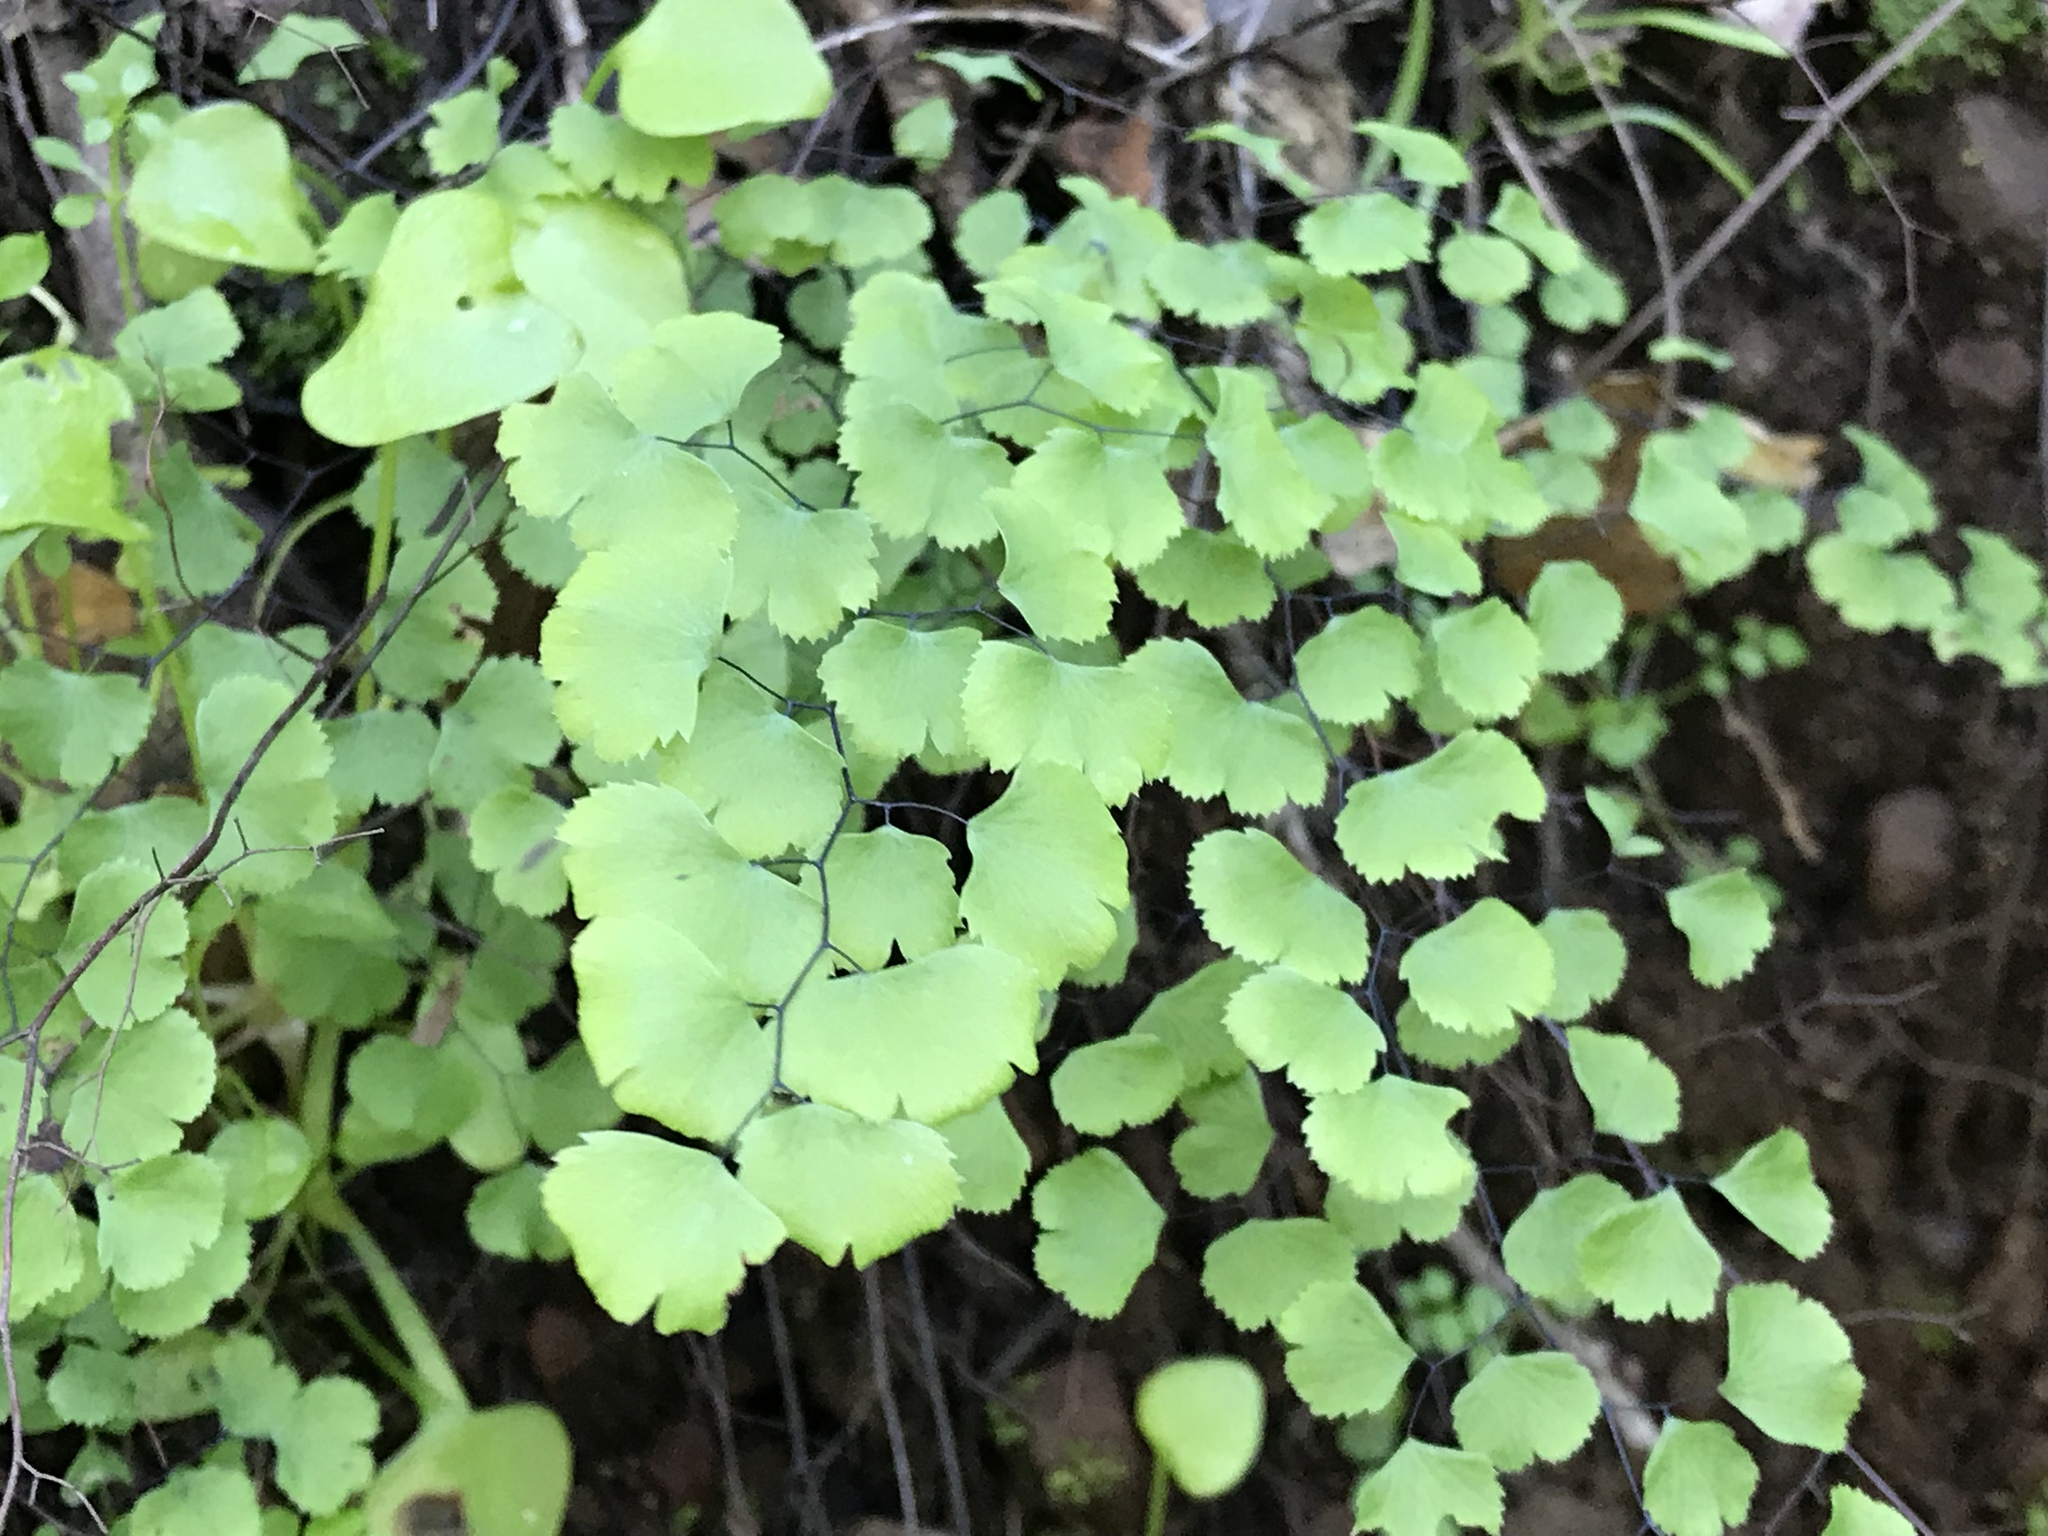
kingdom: Plantae
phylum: Tracheophyta
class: Polypodiopsida
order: Polypodiales
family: Pteridaceae
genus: Adiantum
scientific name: Adiantum jordanii
